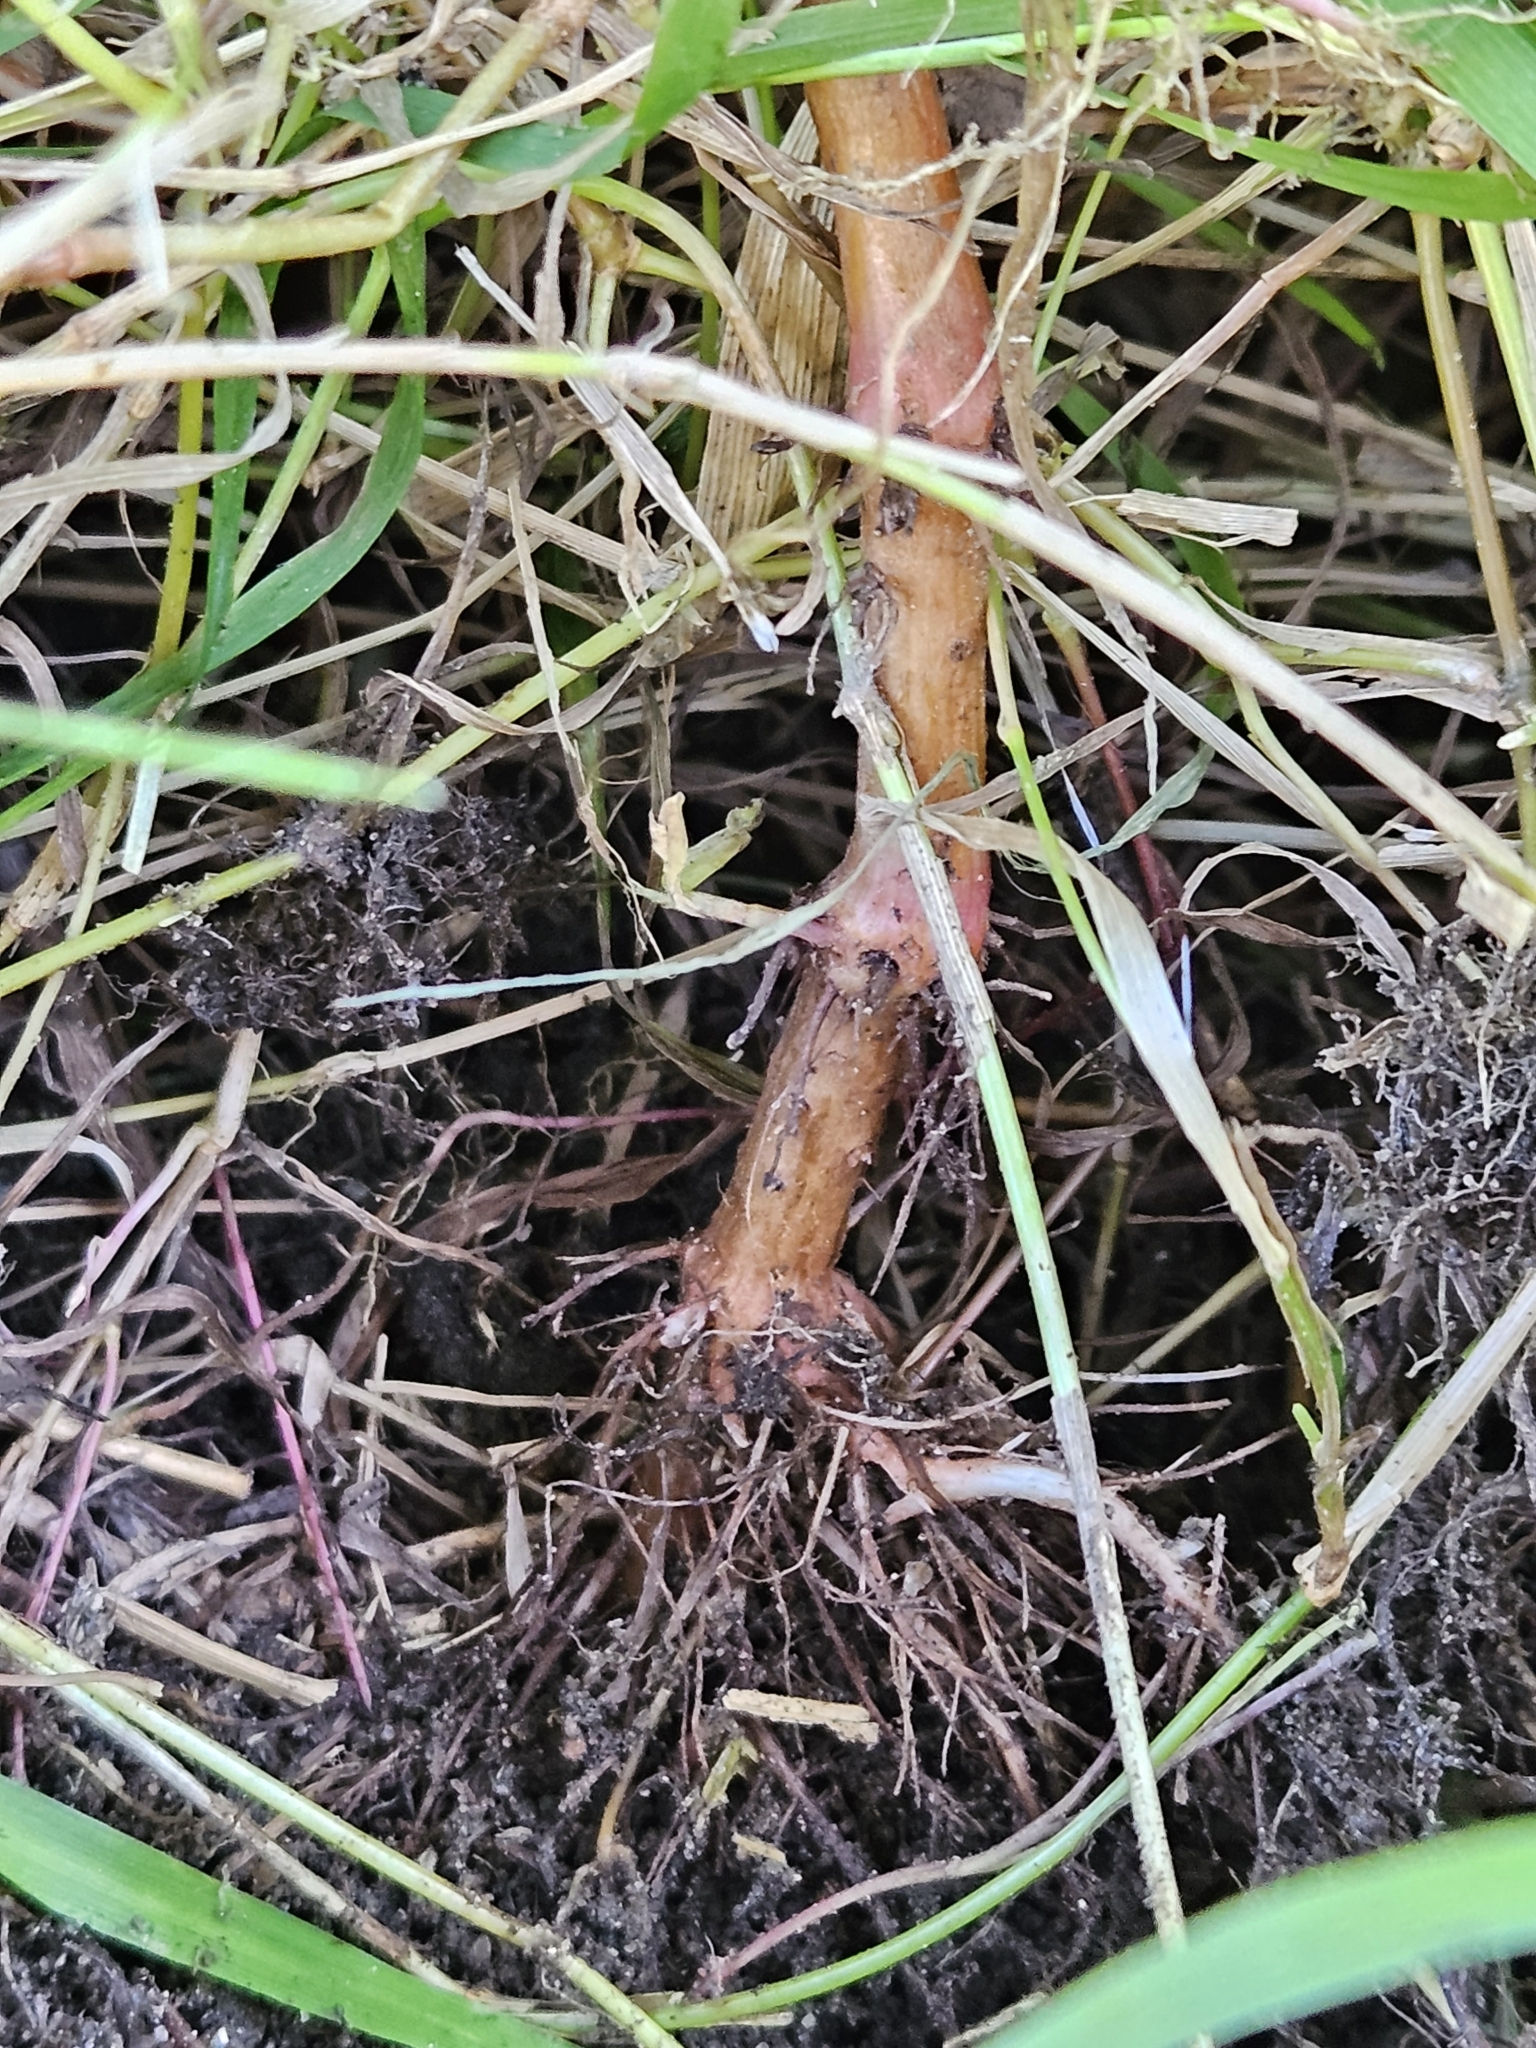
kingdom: Plantae
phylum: Tracheophyta
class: Magnoliopsida
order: Caryophyllales
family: Polygonaceae
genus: Persicaria
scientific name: Persicaria punctata
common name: Dotted smartweed
